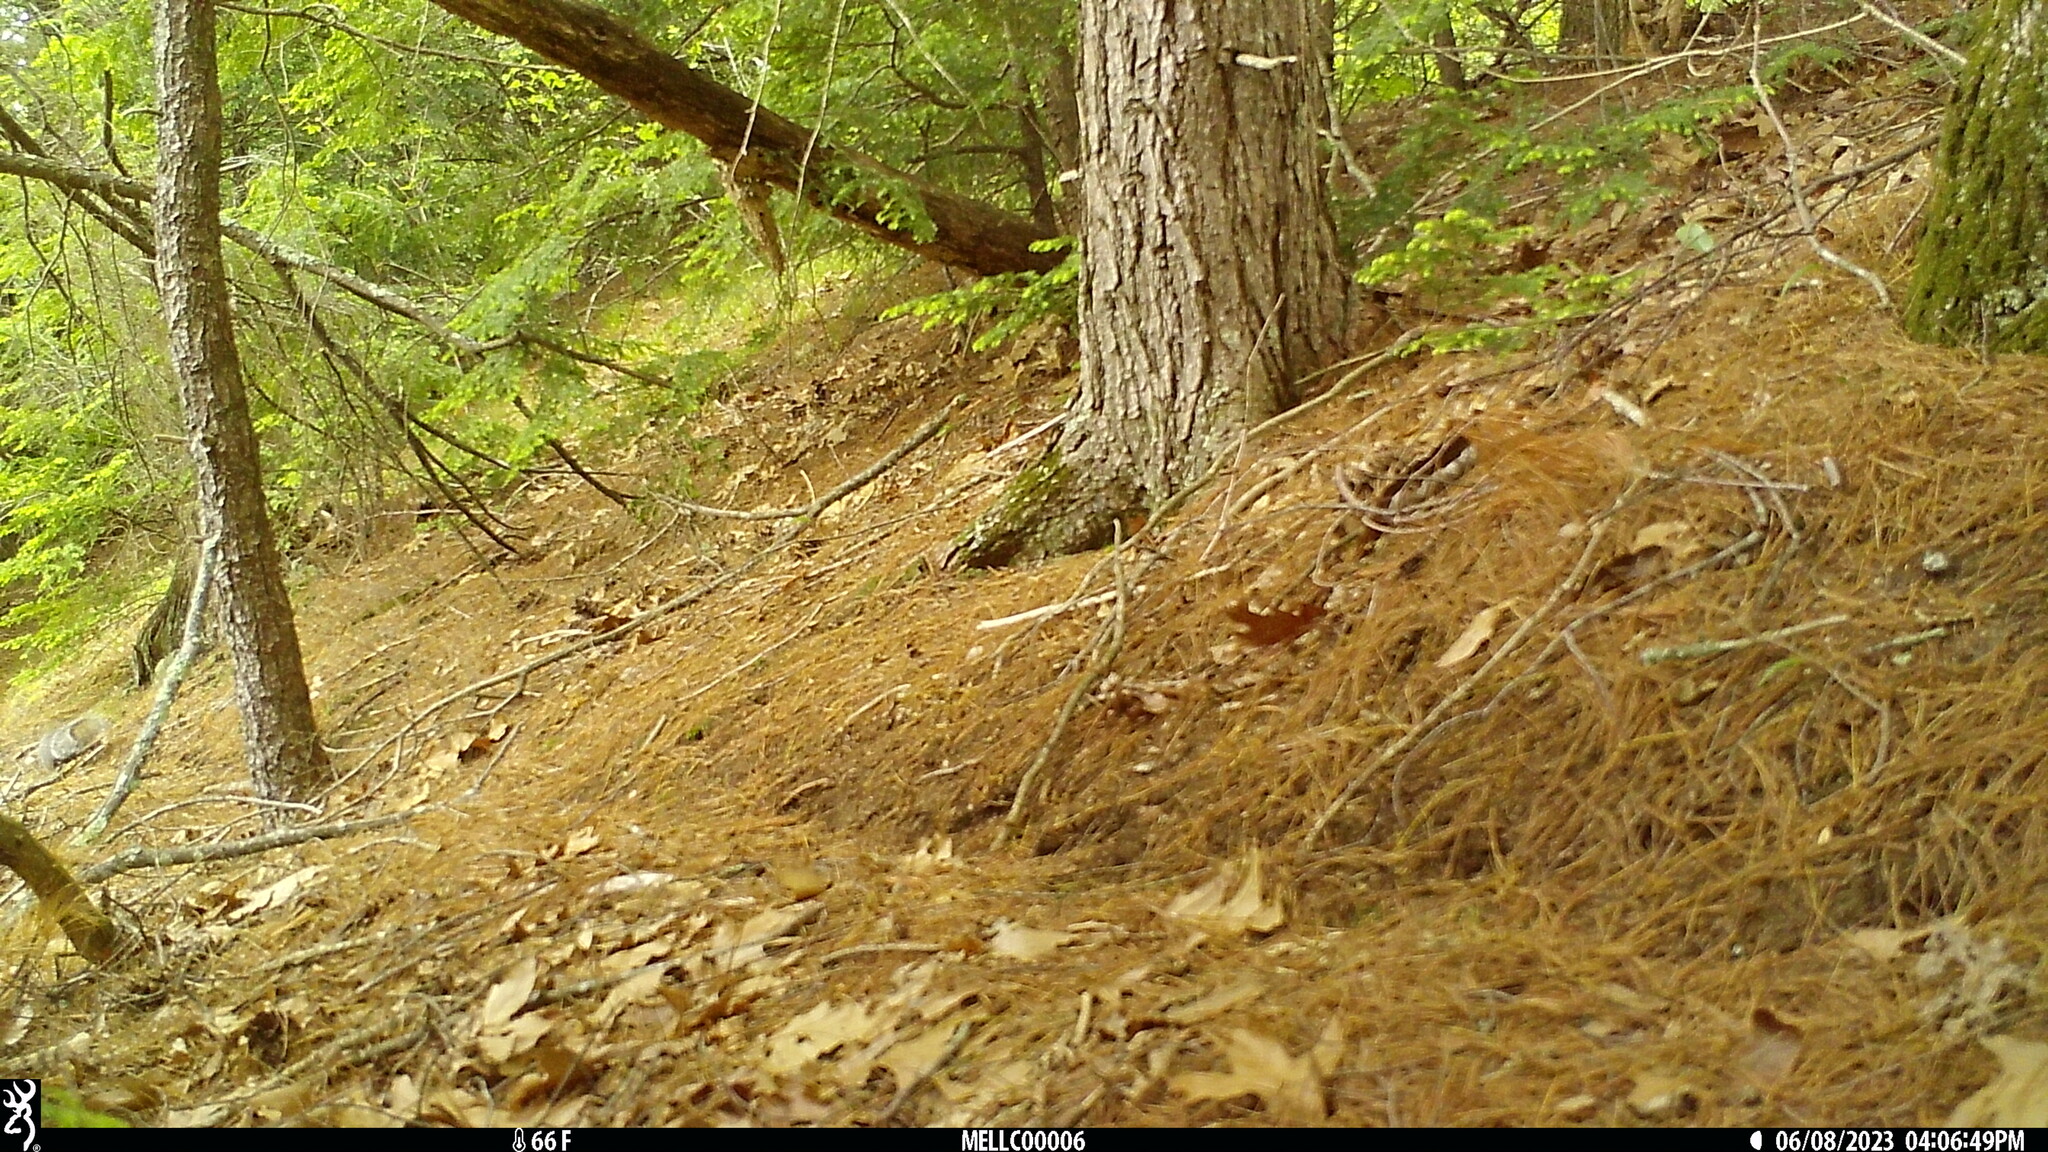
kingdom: Animalia
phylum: Chordata
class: Mammalia
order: Rodentia
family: Sciuridae
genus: Sciurus
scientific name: Sciurus carolinensis
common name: Eastern gray squirrel
